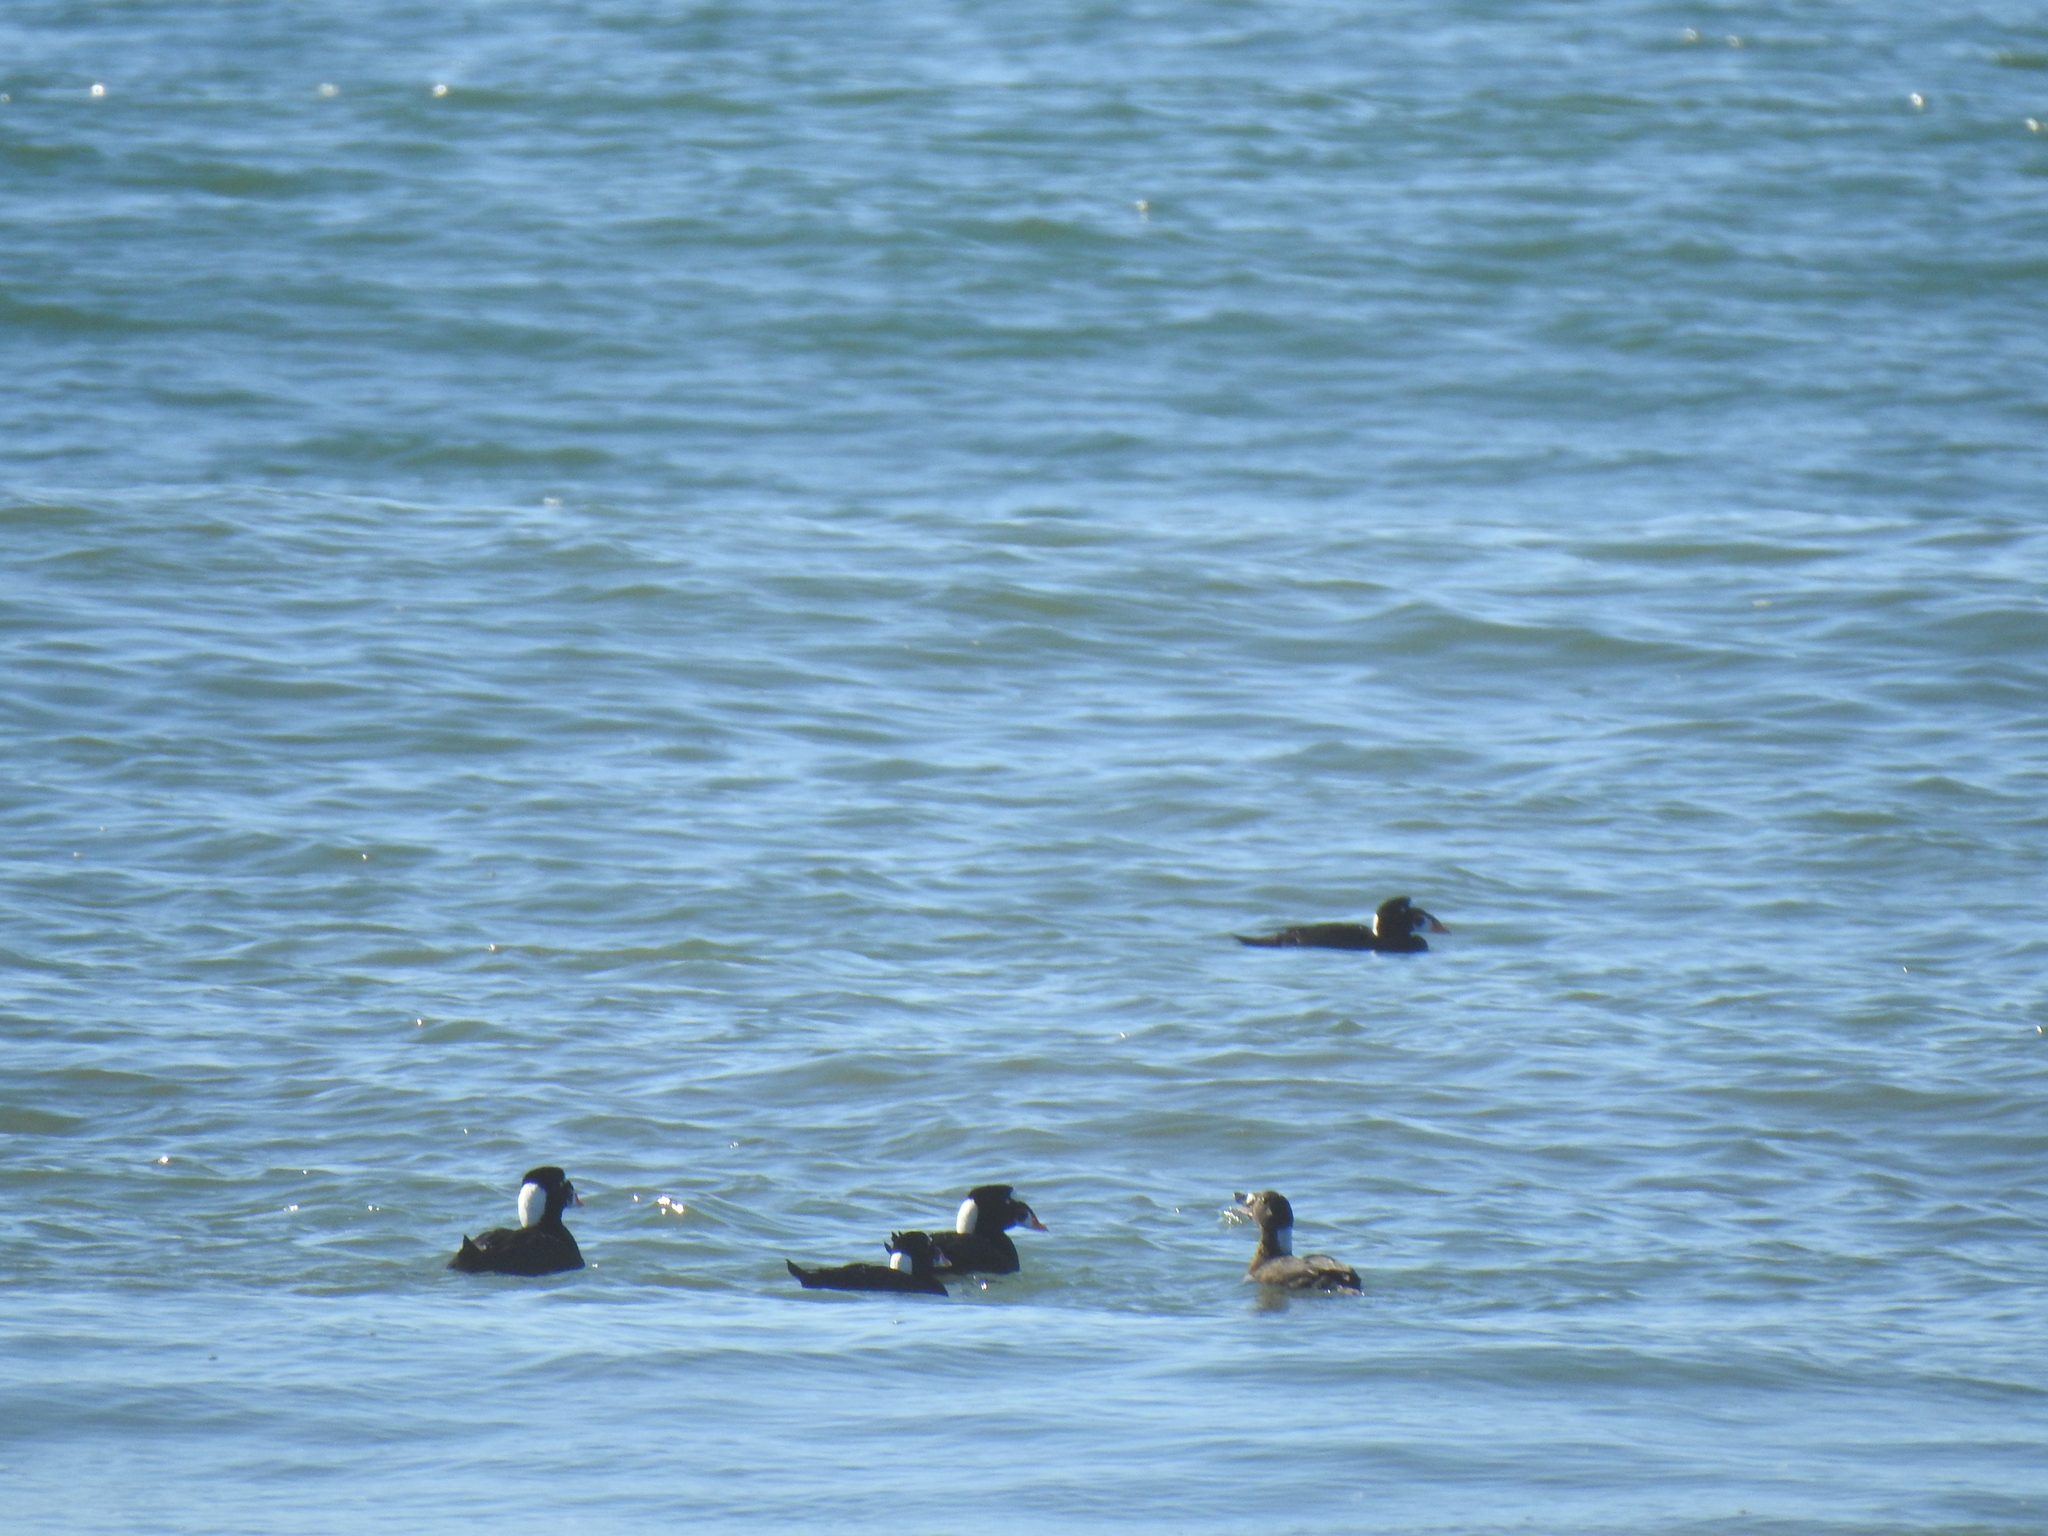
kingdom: Animalia
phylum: Chordata
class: Aves
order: Anseriformes
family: Anatidae
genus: Melanitta
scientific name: Melanitta perspicillata
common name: Surf scoter
